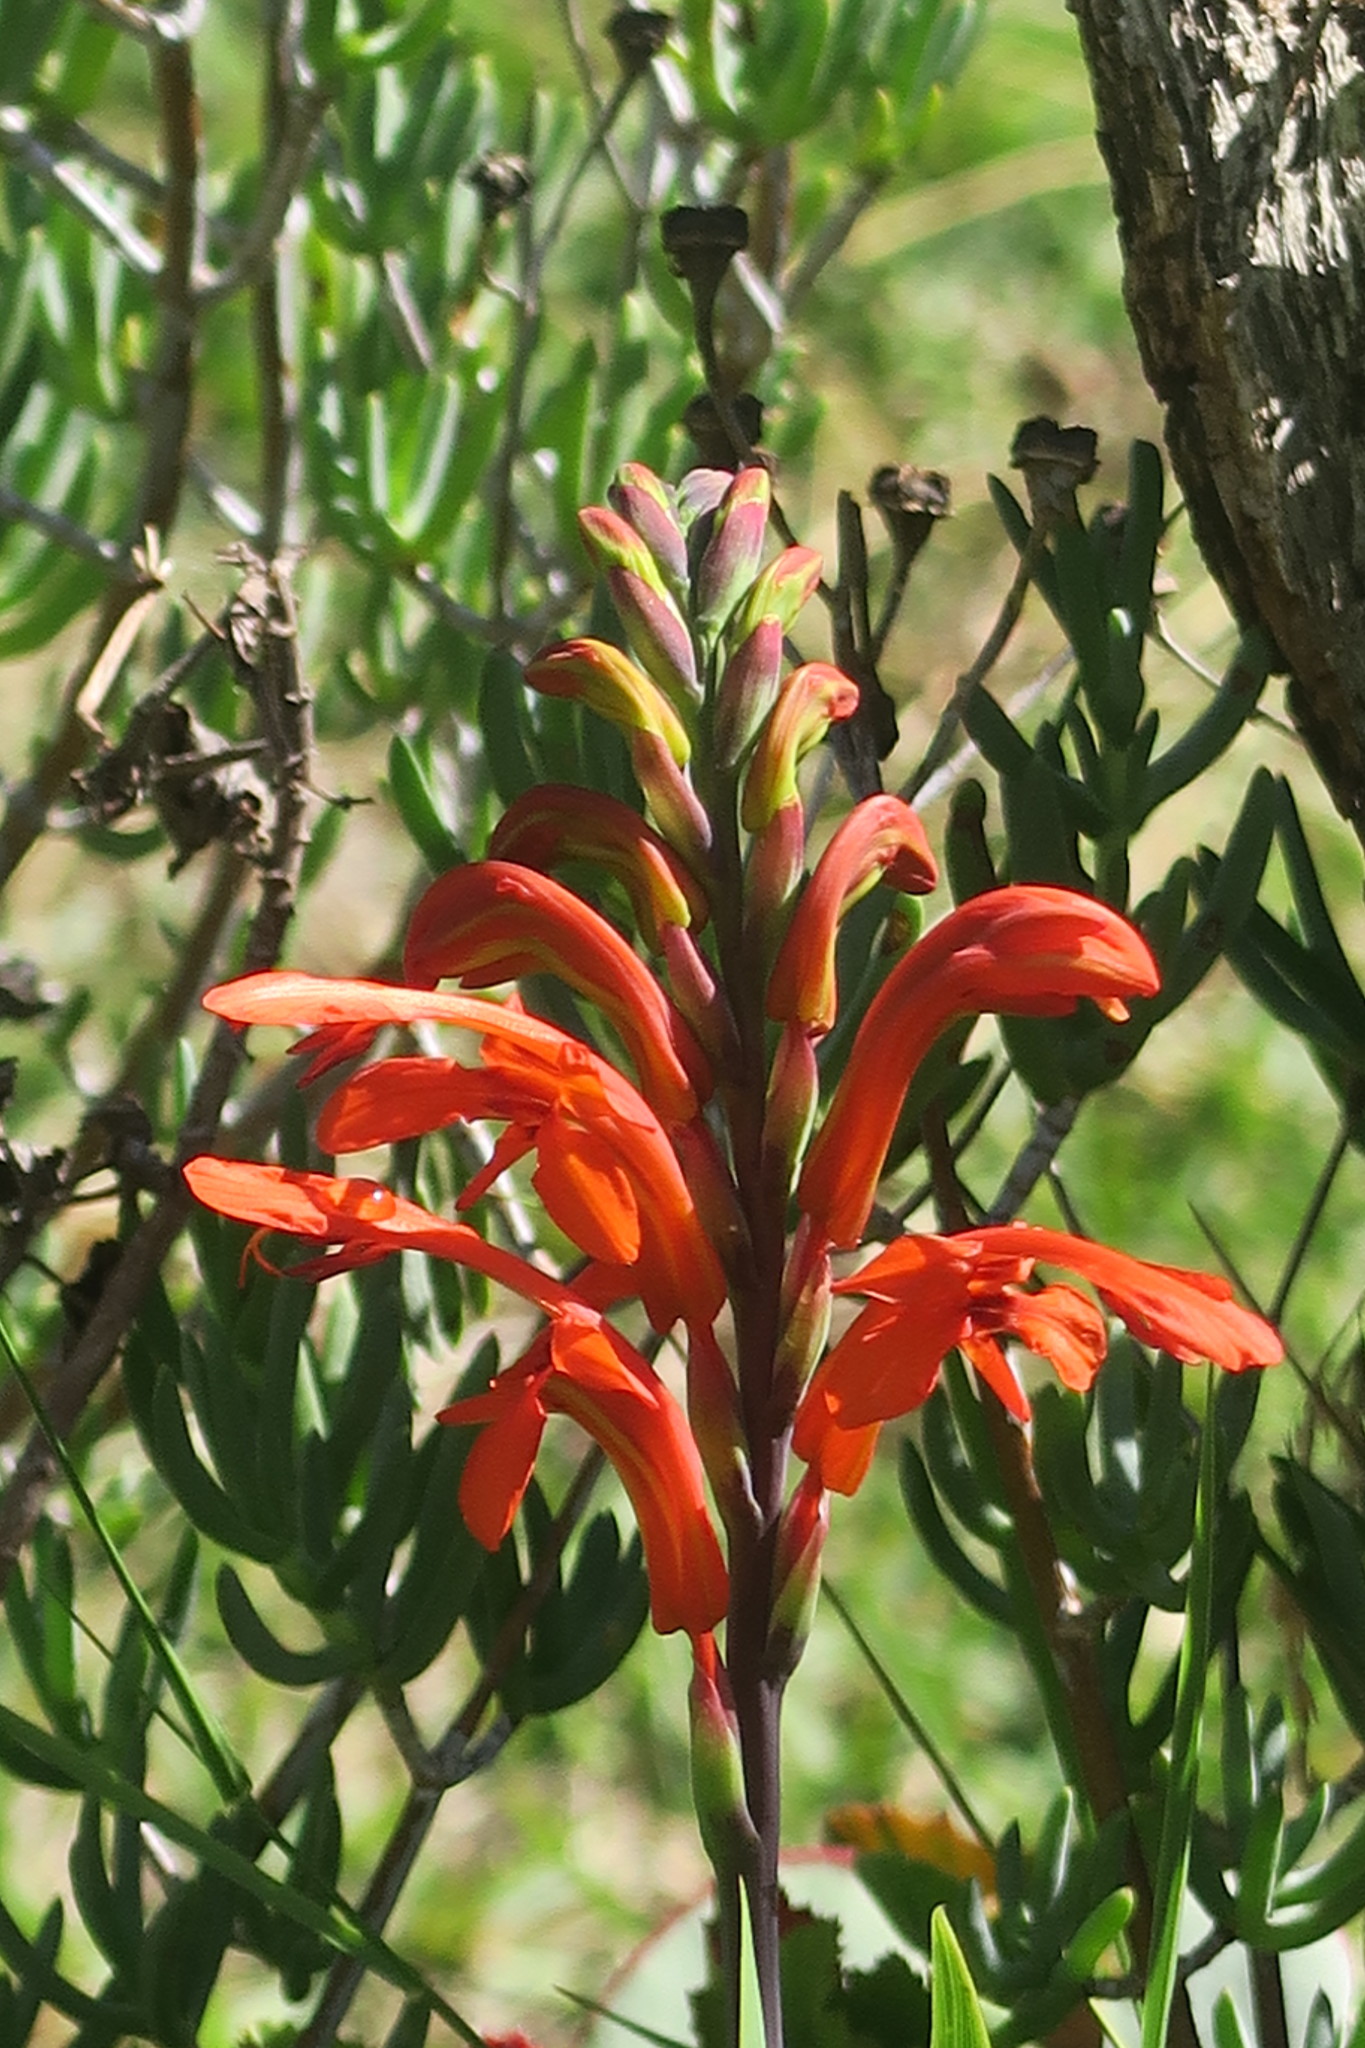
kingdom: Plantae
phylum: Tracheophyta
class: Liliopsida
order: Asparagales
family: Iridaceae
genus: Chasmanthe
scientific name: Chasmanthe aethiopica
